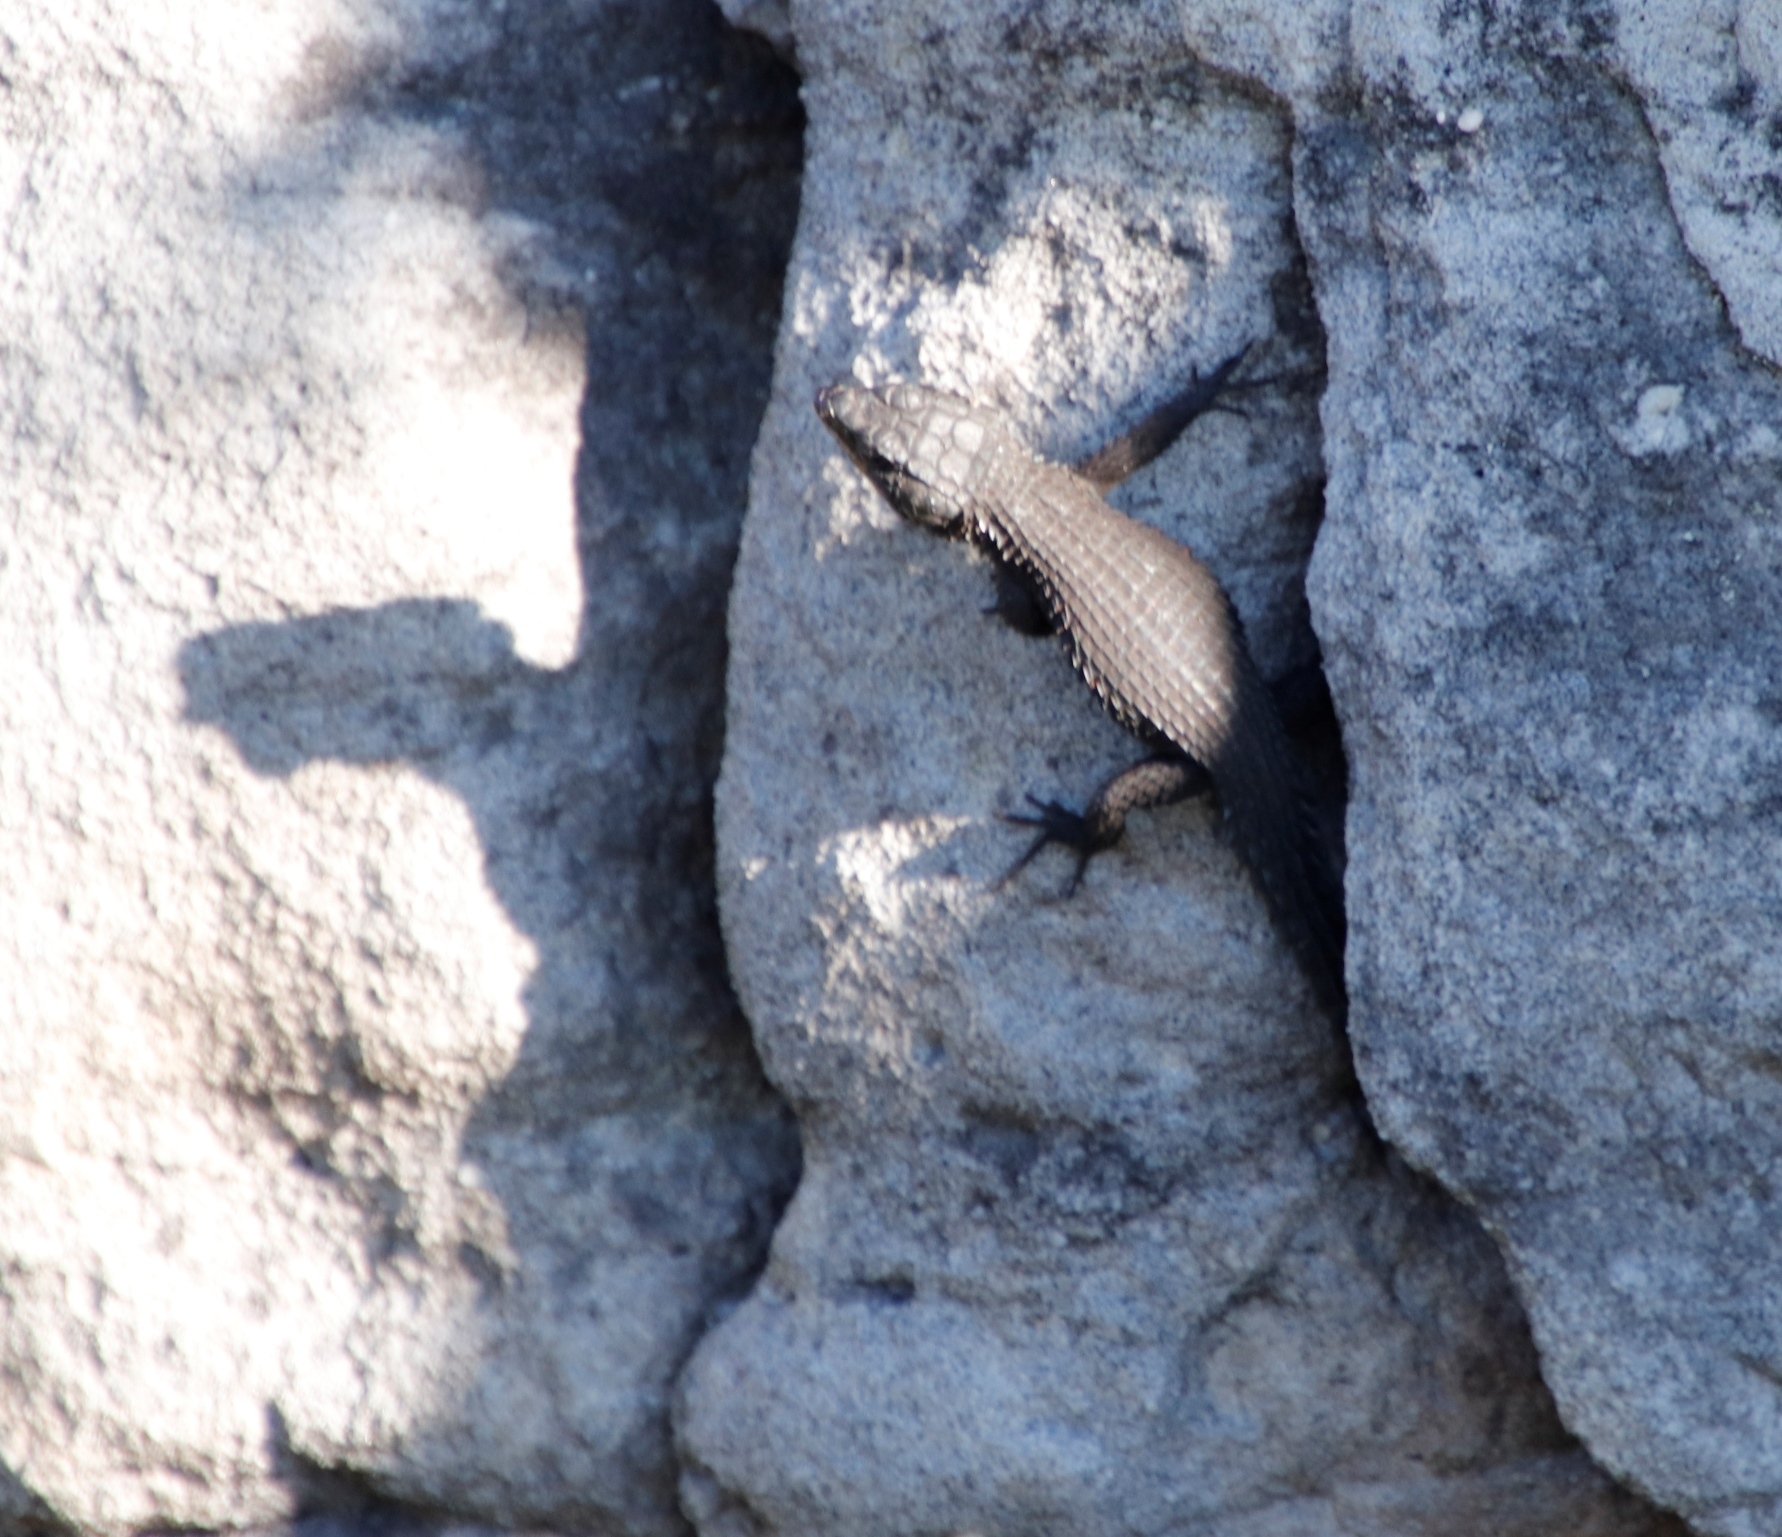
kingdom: Animalia
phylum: Chordata
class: Squamata
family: Cordylidae
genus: Cordylus
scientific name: Cordylus niger
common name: Black girdled lizard
